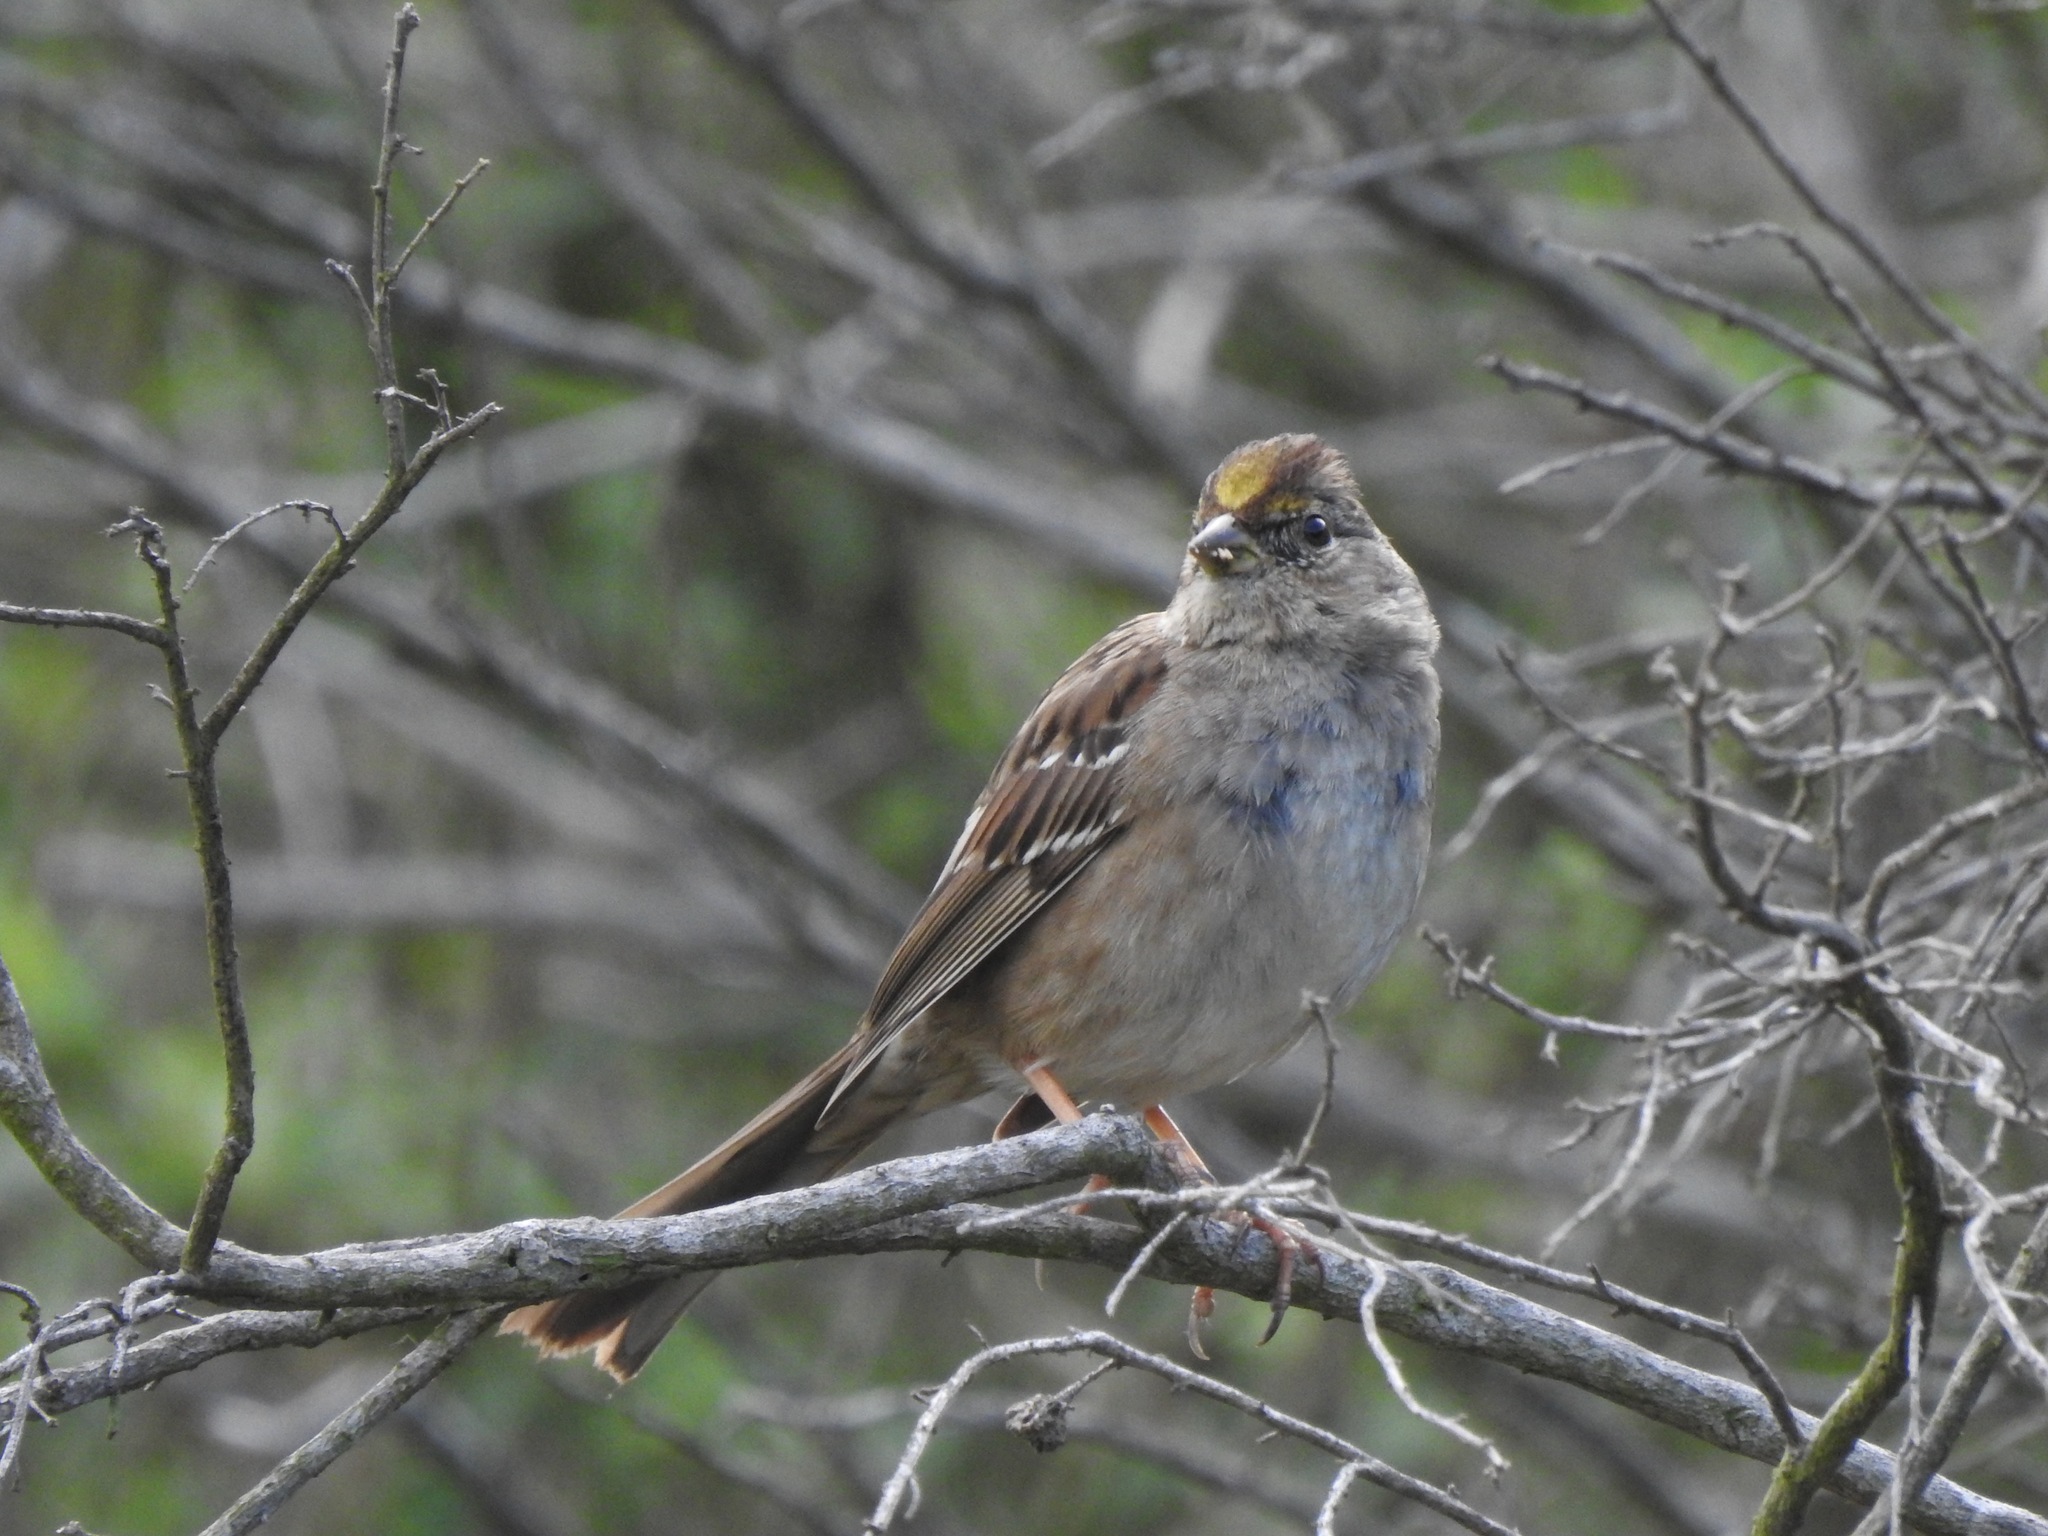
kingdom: Animalia
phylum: Chordata
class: Aves
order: Passeriformes
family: Passerellidae
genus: Zonotrichia
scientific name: Zonotrichia atricapilla
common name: Golden-crowned sparrow
